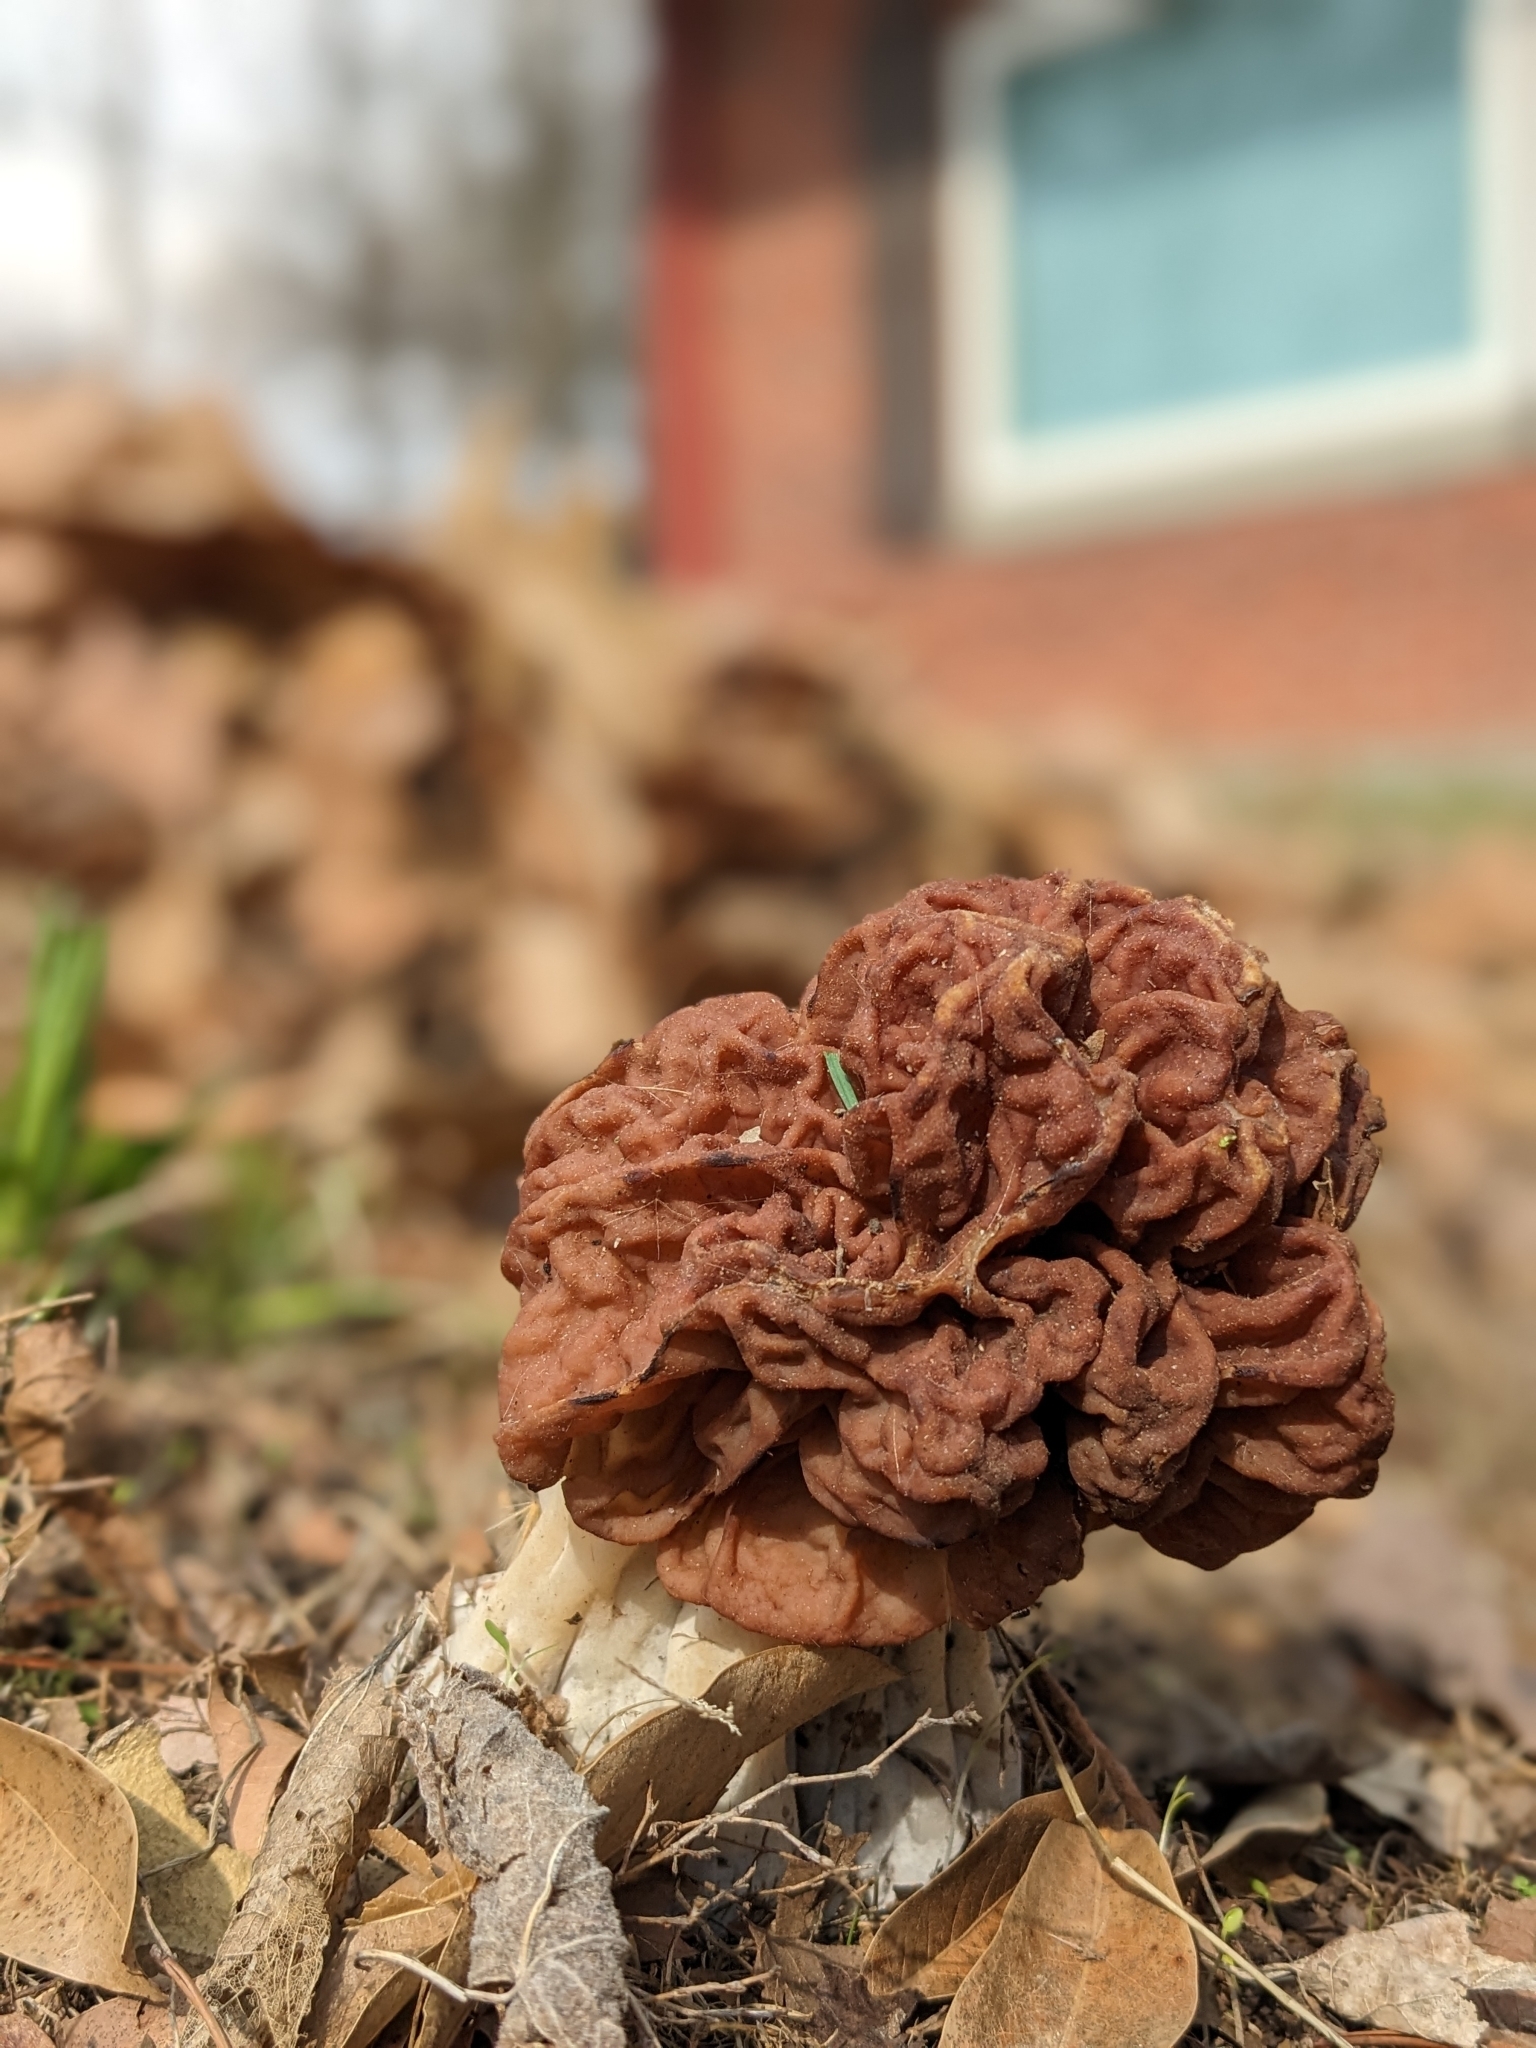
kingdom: Fungi
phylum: Ascomycota
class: Pezizomycetes
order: Pezizales
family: Discinaceae
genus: Discina
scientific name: Discina caroliniana
